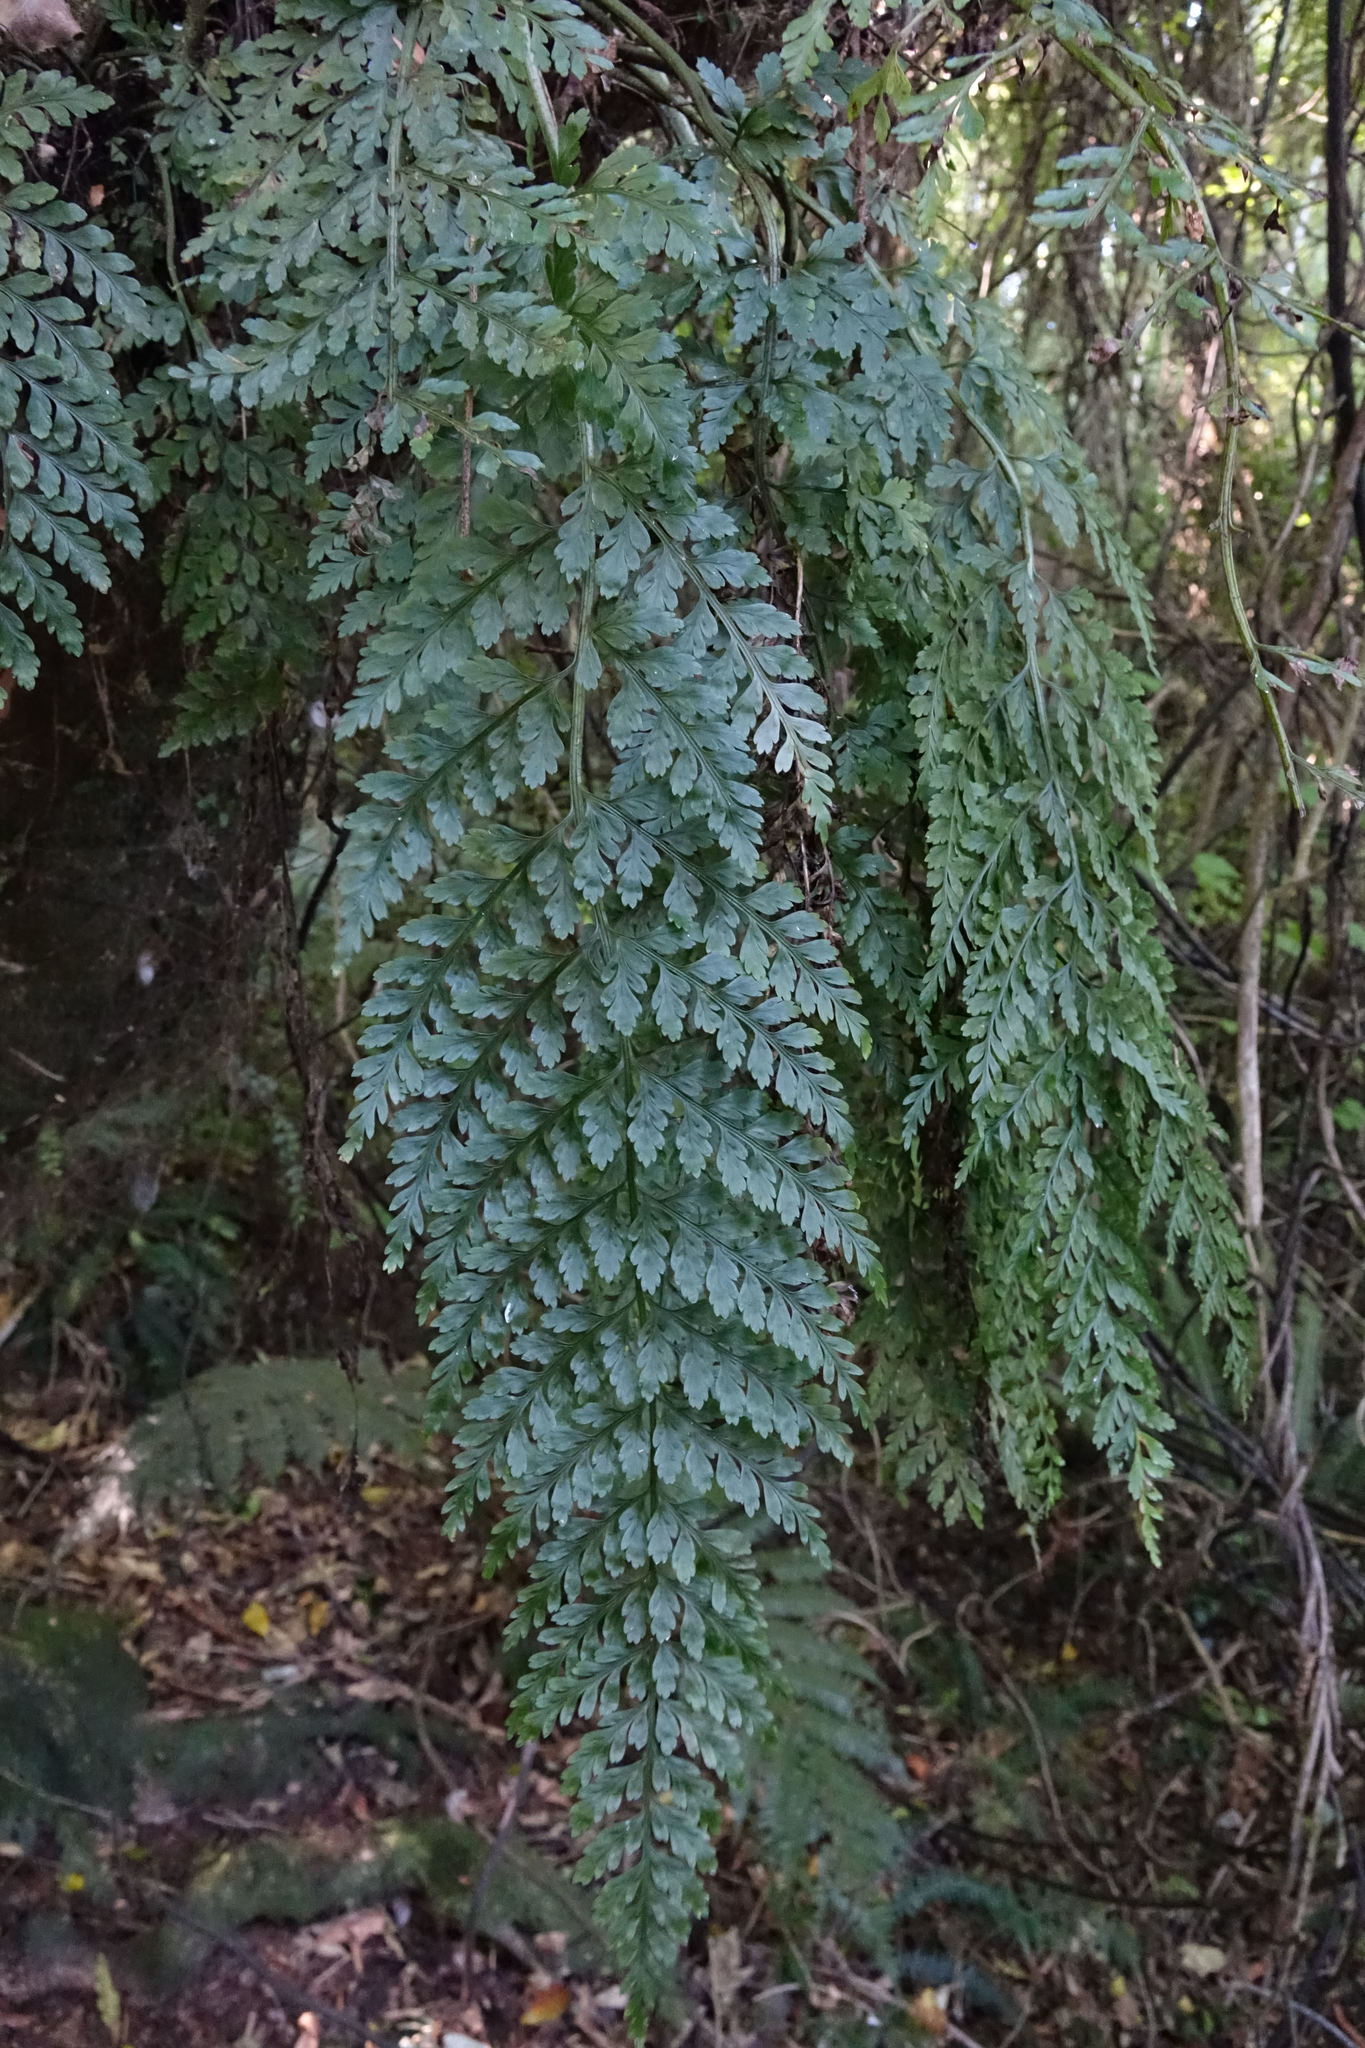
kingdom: Plantae
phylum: Tracheophyta
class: Polypodiopsida
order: Polypodiales
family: Aspleniaceae
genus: Asplenium
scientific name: Asplenium
